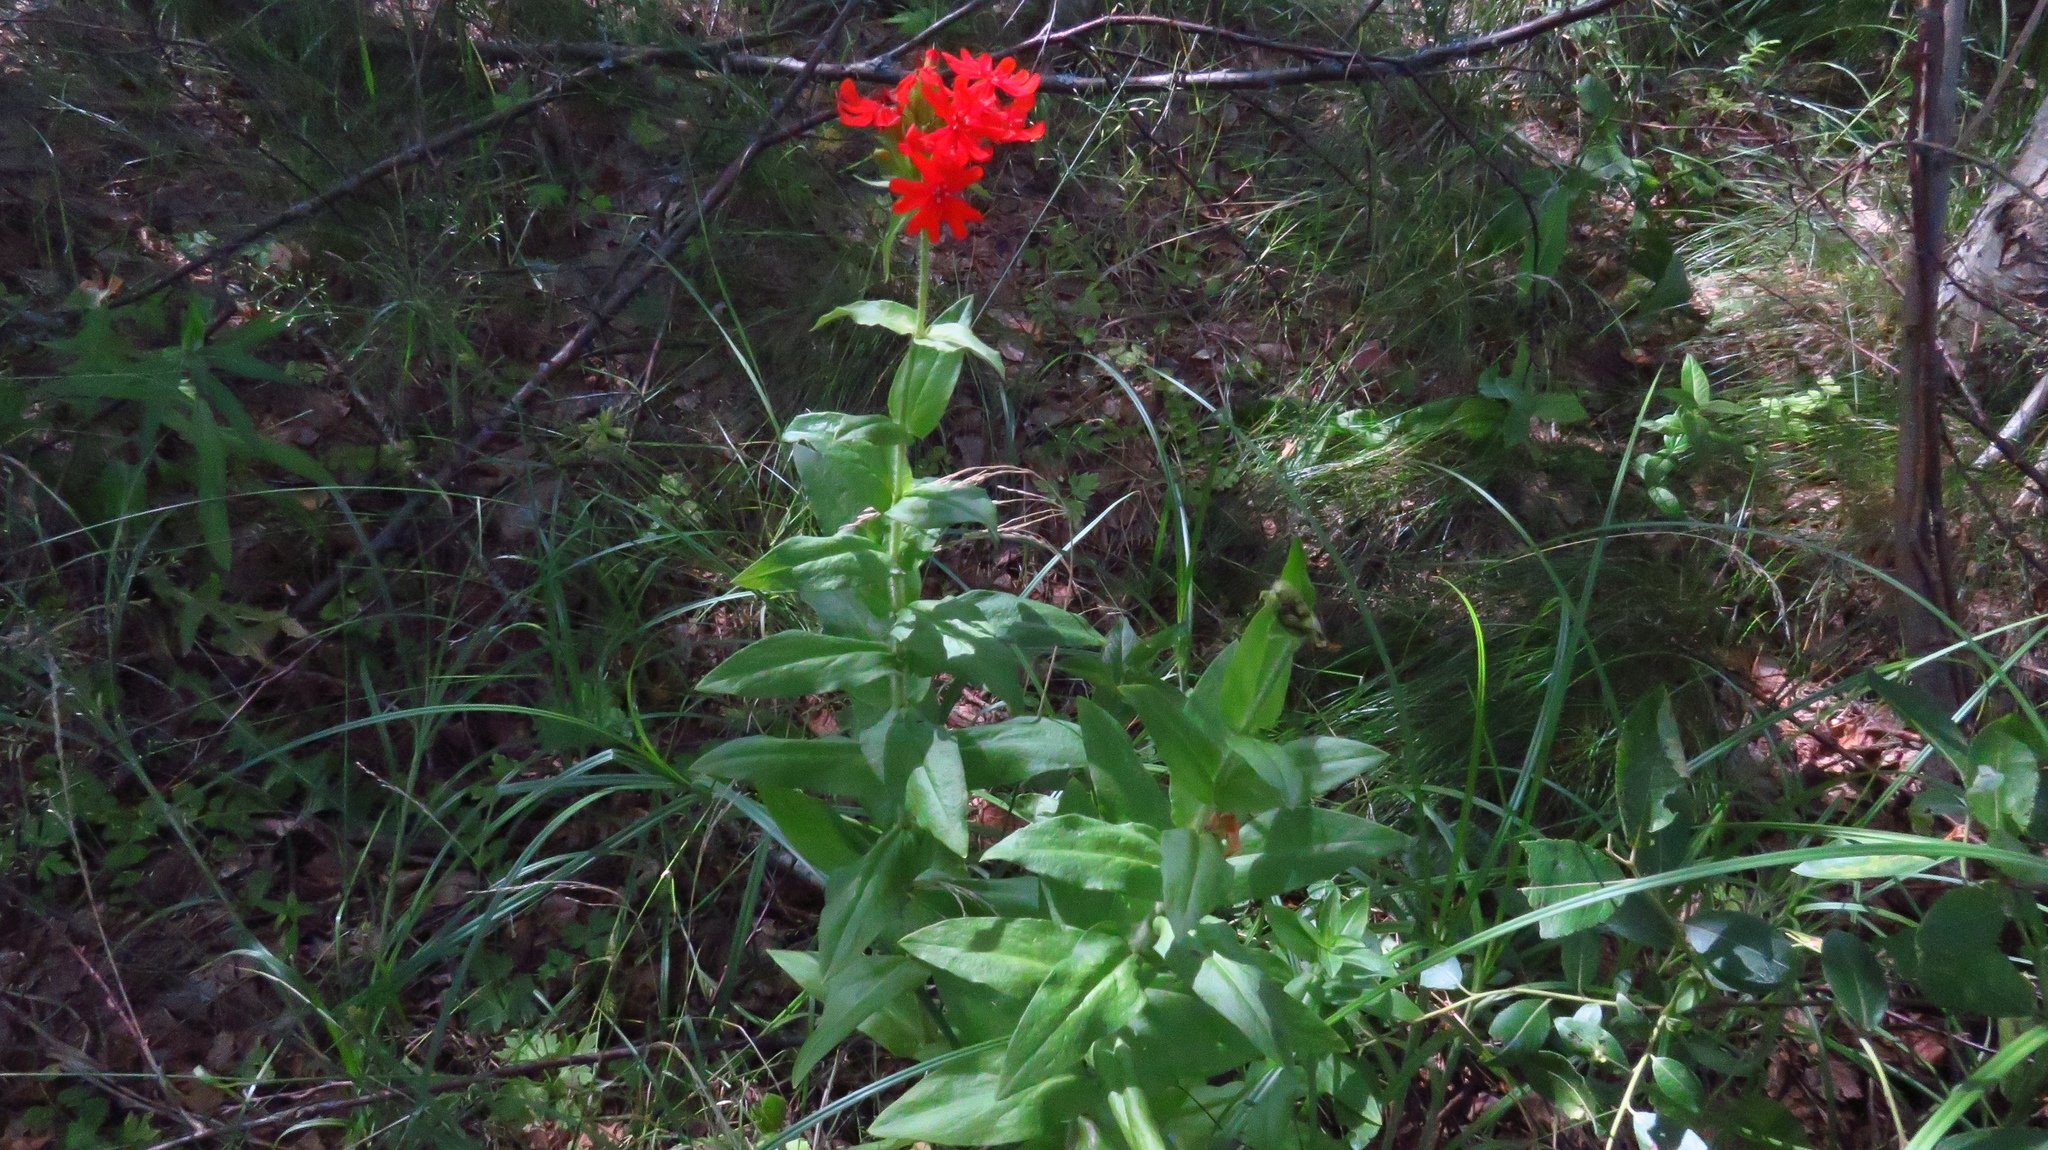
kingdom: Plantae
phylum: Tracheophyta
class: Magnoliopsida
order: Caryophyllales
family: Caryophyllaceae
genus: Silene
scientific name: Silene chalcedonica
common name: Maltese-cross
